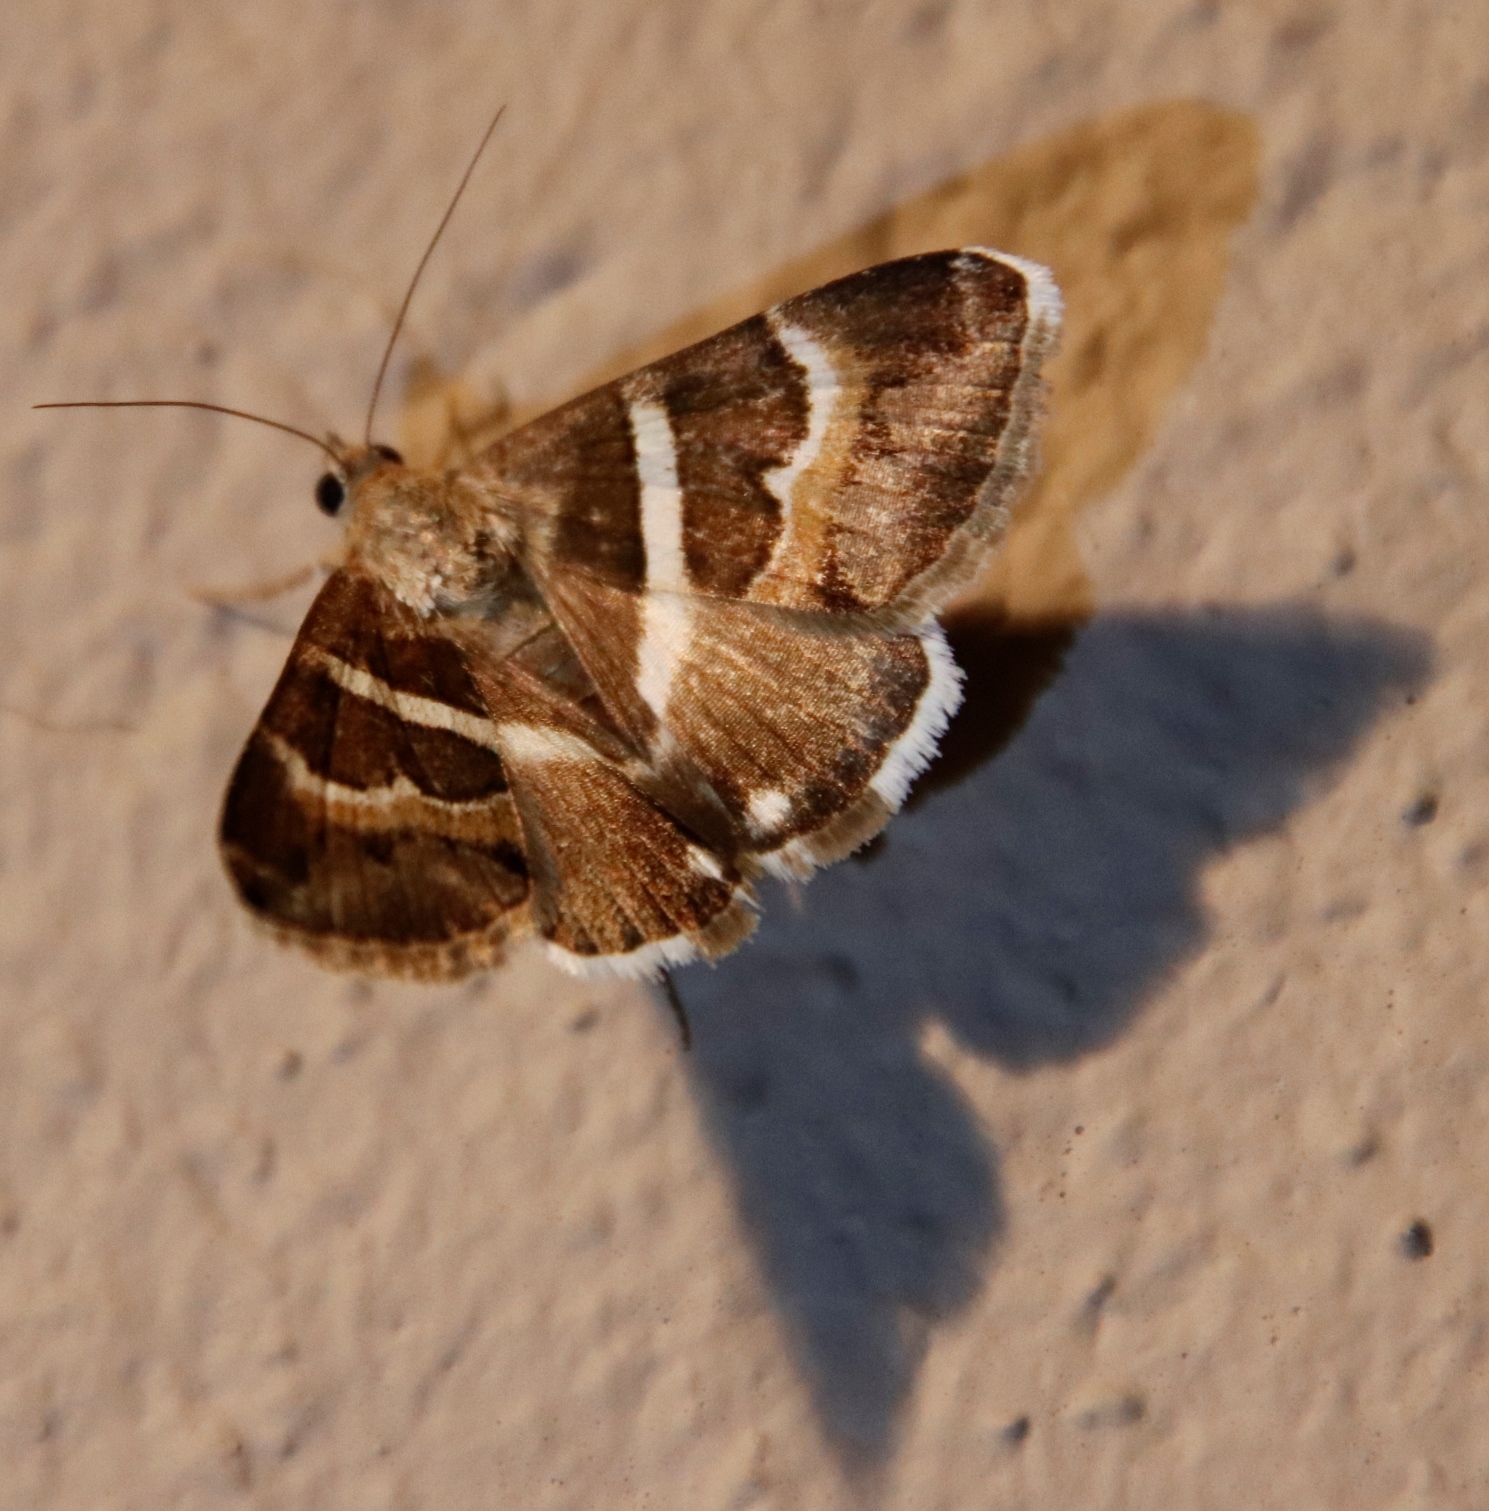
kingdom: Animalia
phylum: Arthropoda
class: Insecta
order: Lepidoptera
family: Erebidae
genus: Grammodes
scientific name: Grammodes stolida
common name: Geometrician
